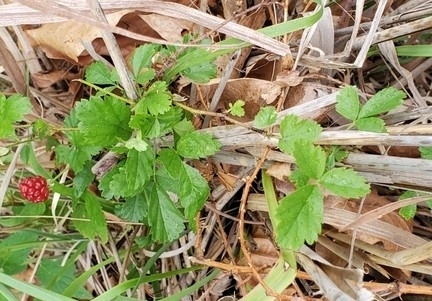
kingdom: Plantae
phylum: Tracheophyta
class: Magnoliopsida
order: Rosales
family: Rosaceae
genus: Rubus
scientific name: Rubus trivialis
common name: Southern dewberry
